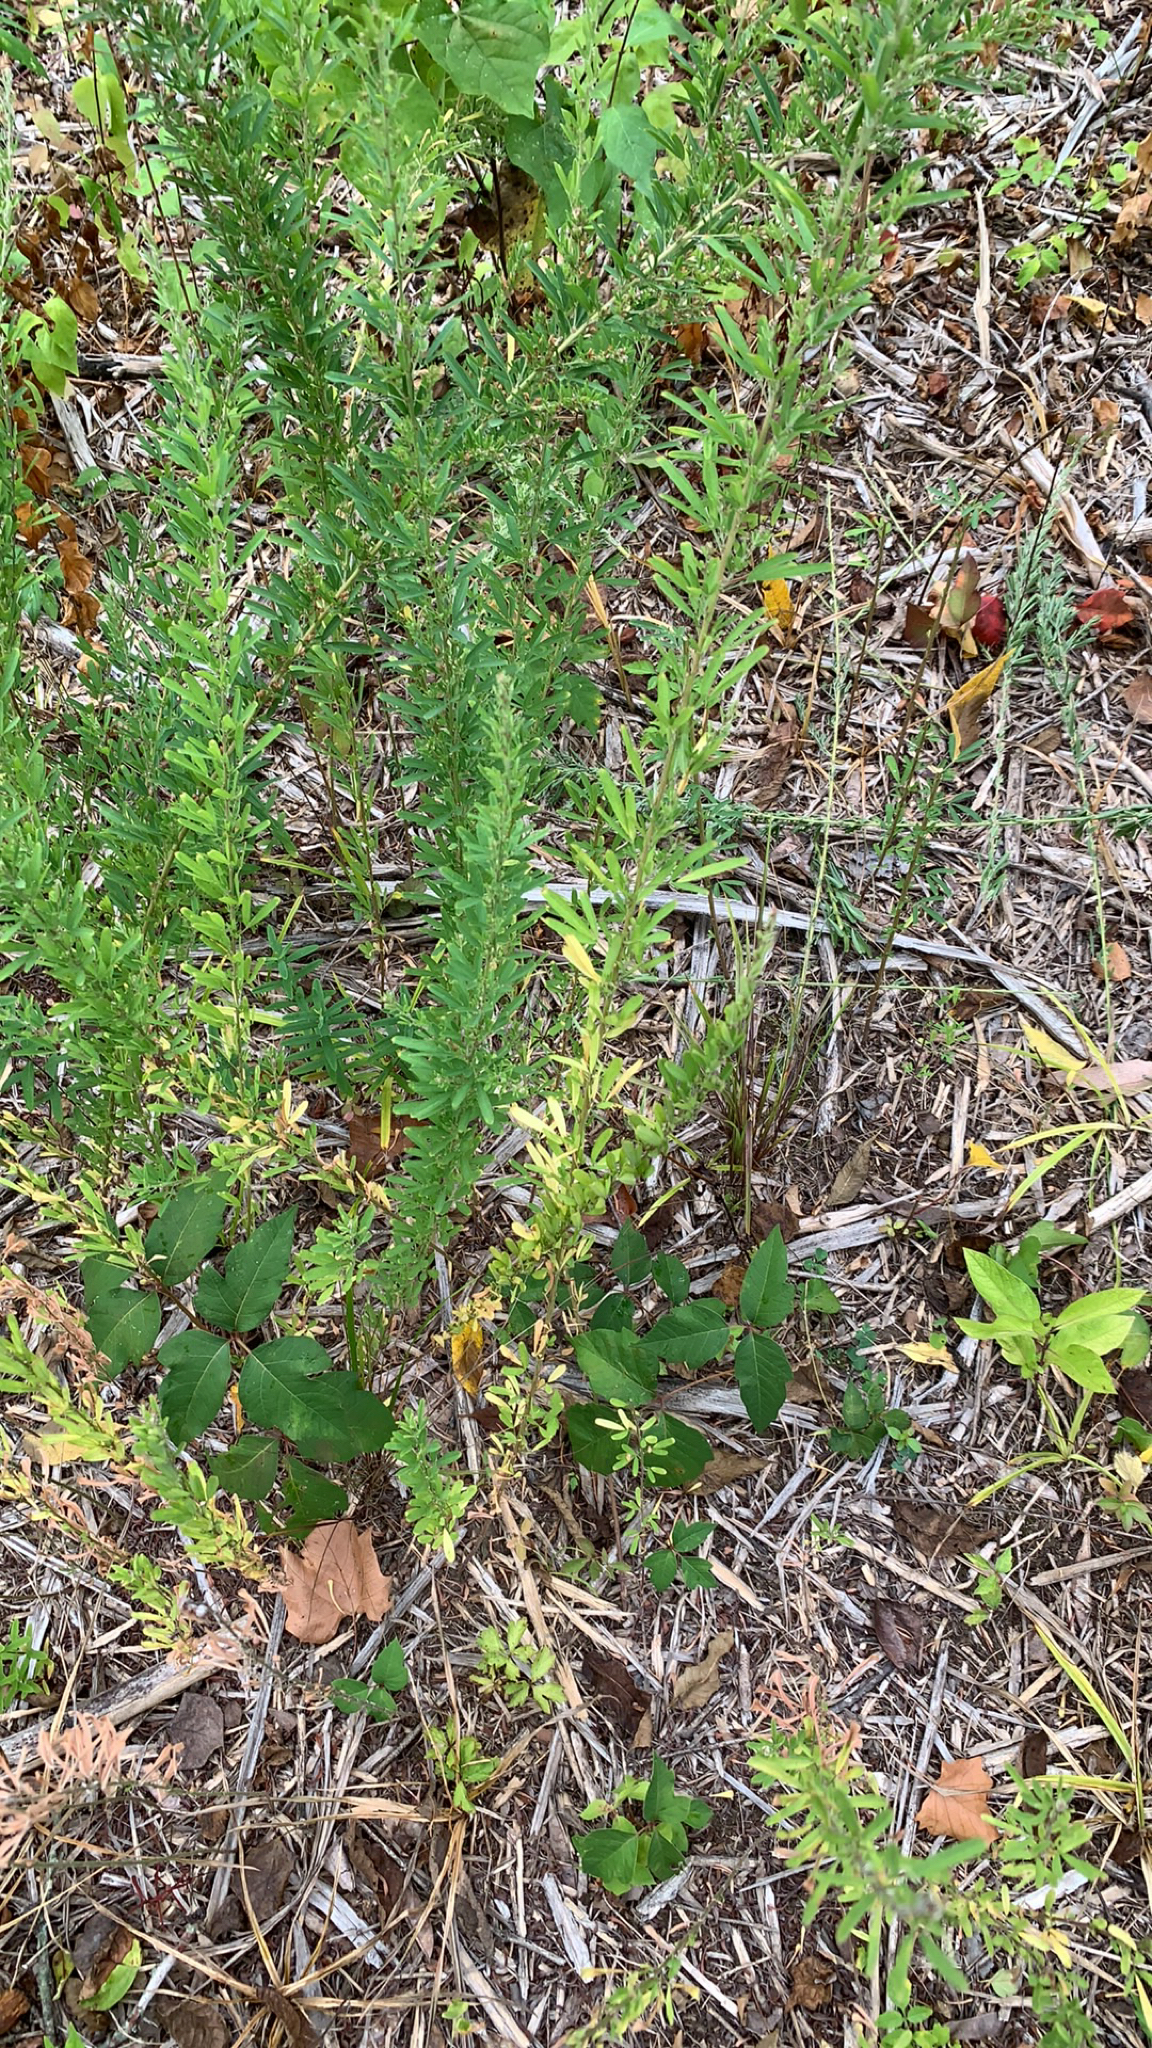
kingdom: Plantae
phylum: Tracheophyta
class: Magnoliopsida
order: Fabales
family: Fabaceae
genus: Lespedeza
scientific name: Lespedeza cuneata
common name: Chinese bush-clover
